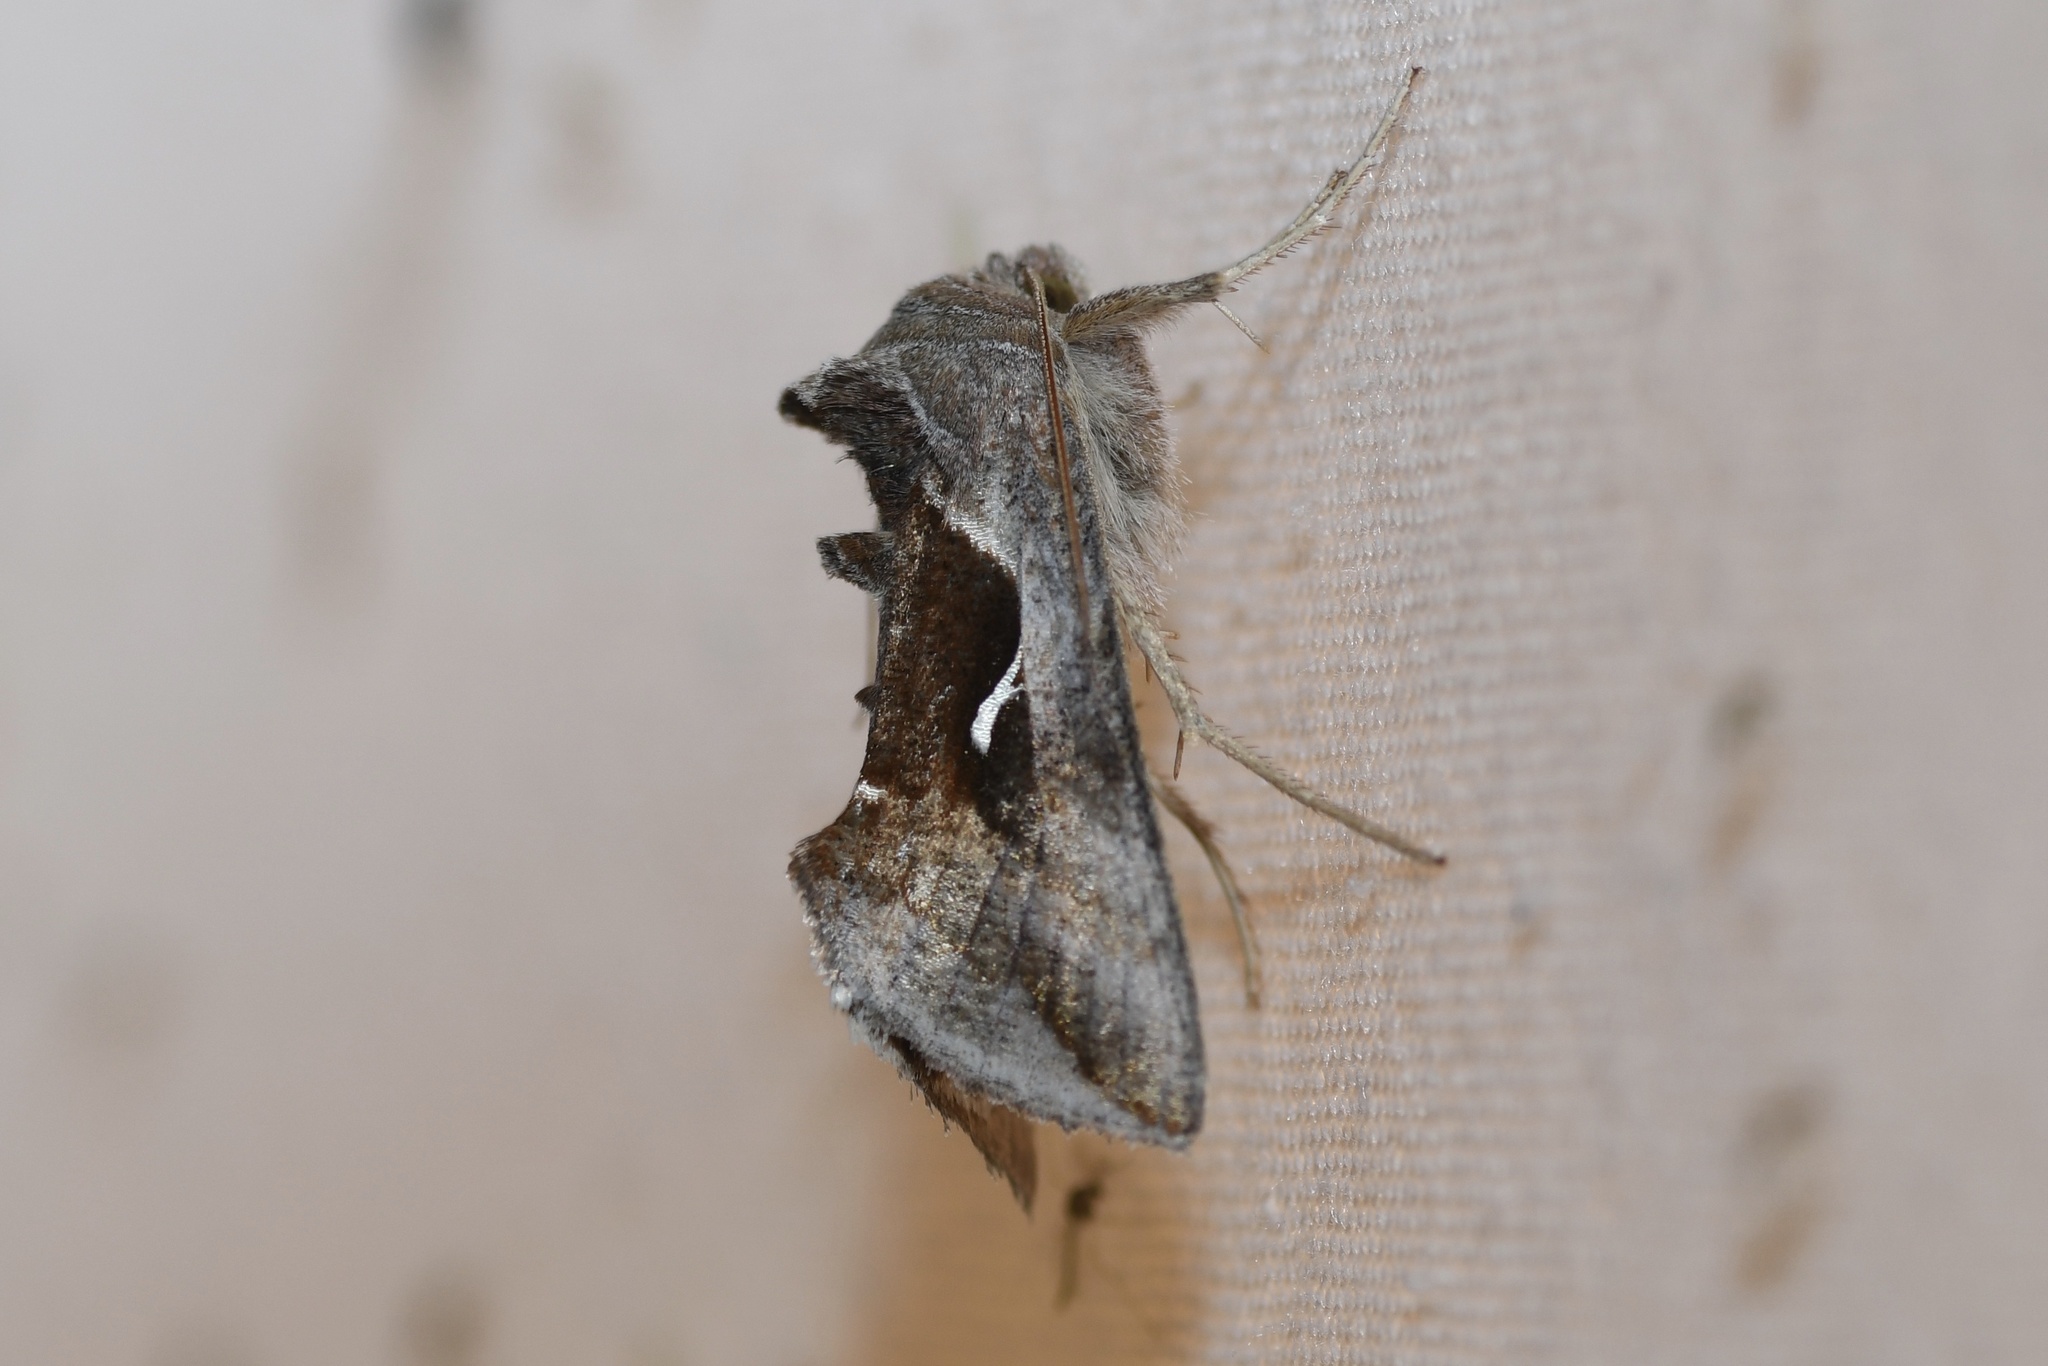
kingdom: Animalia
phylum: Arthropoda
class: Insecta
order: Lepidoptera
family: Noctuidae
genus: Anagrapha
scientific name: Anagrapha falcifera
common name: Celery looper
